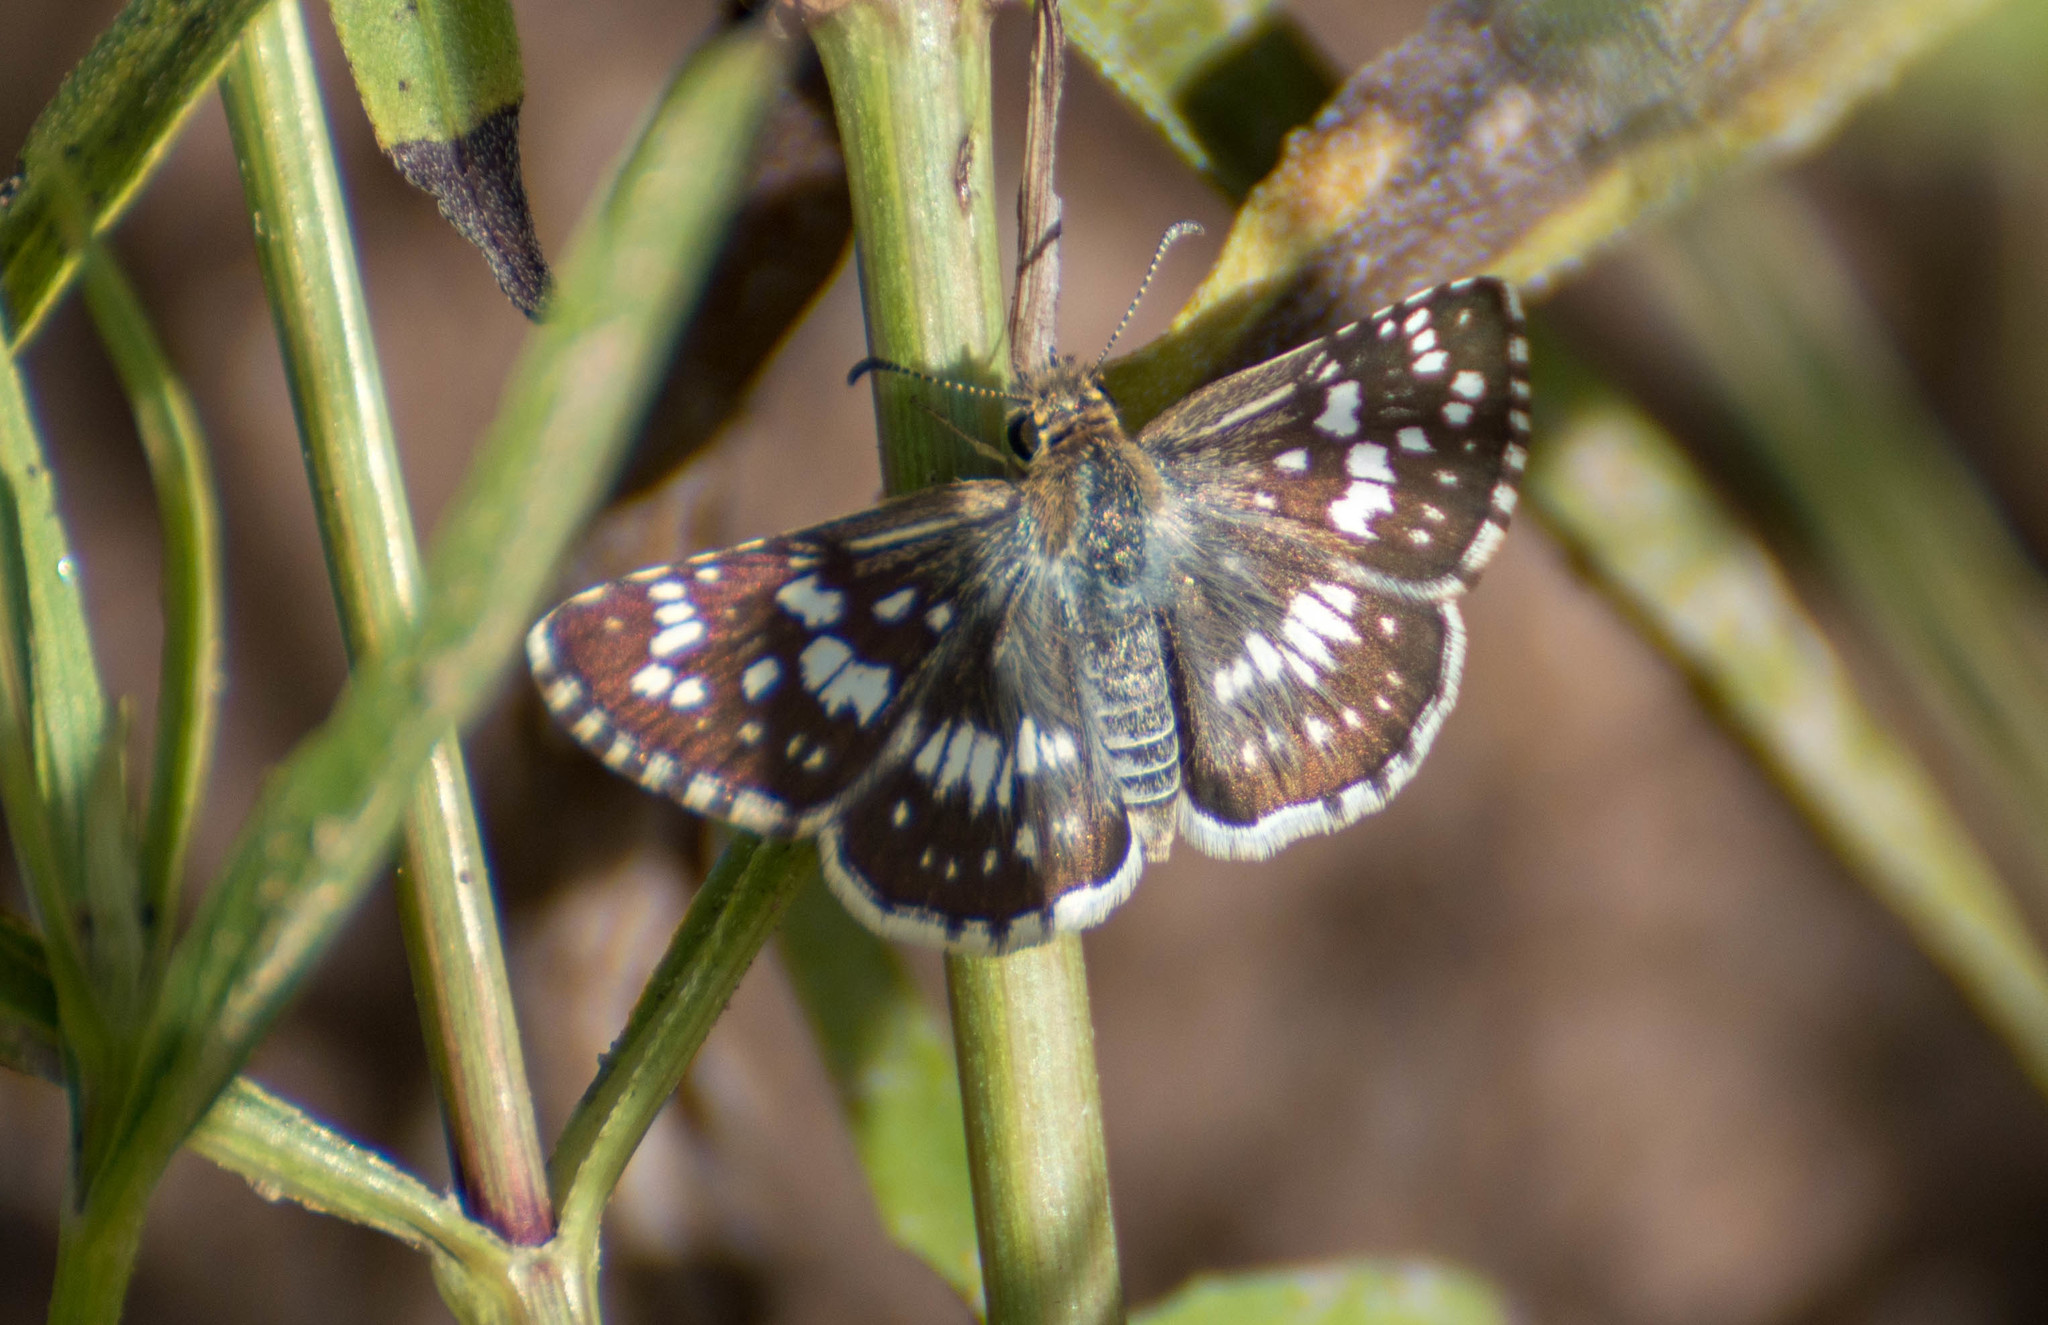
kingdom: Animalia
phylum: Arthropoda
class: Insecta
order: Lepidoptera
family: Hesperiidae
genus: Burnsius
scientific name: Burnsius orcynoides
